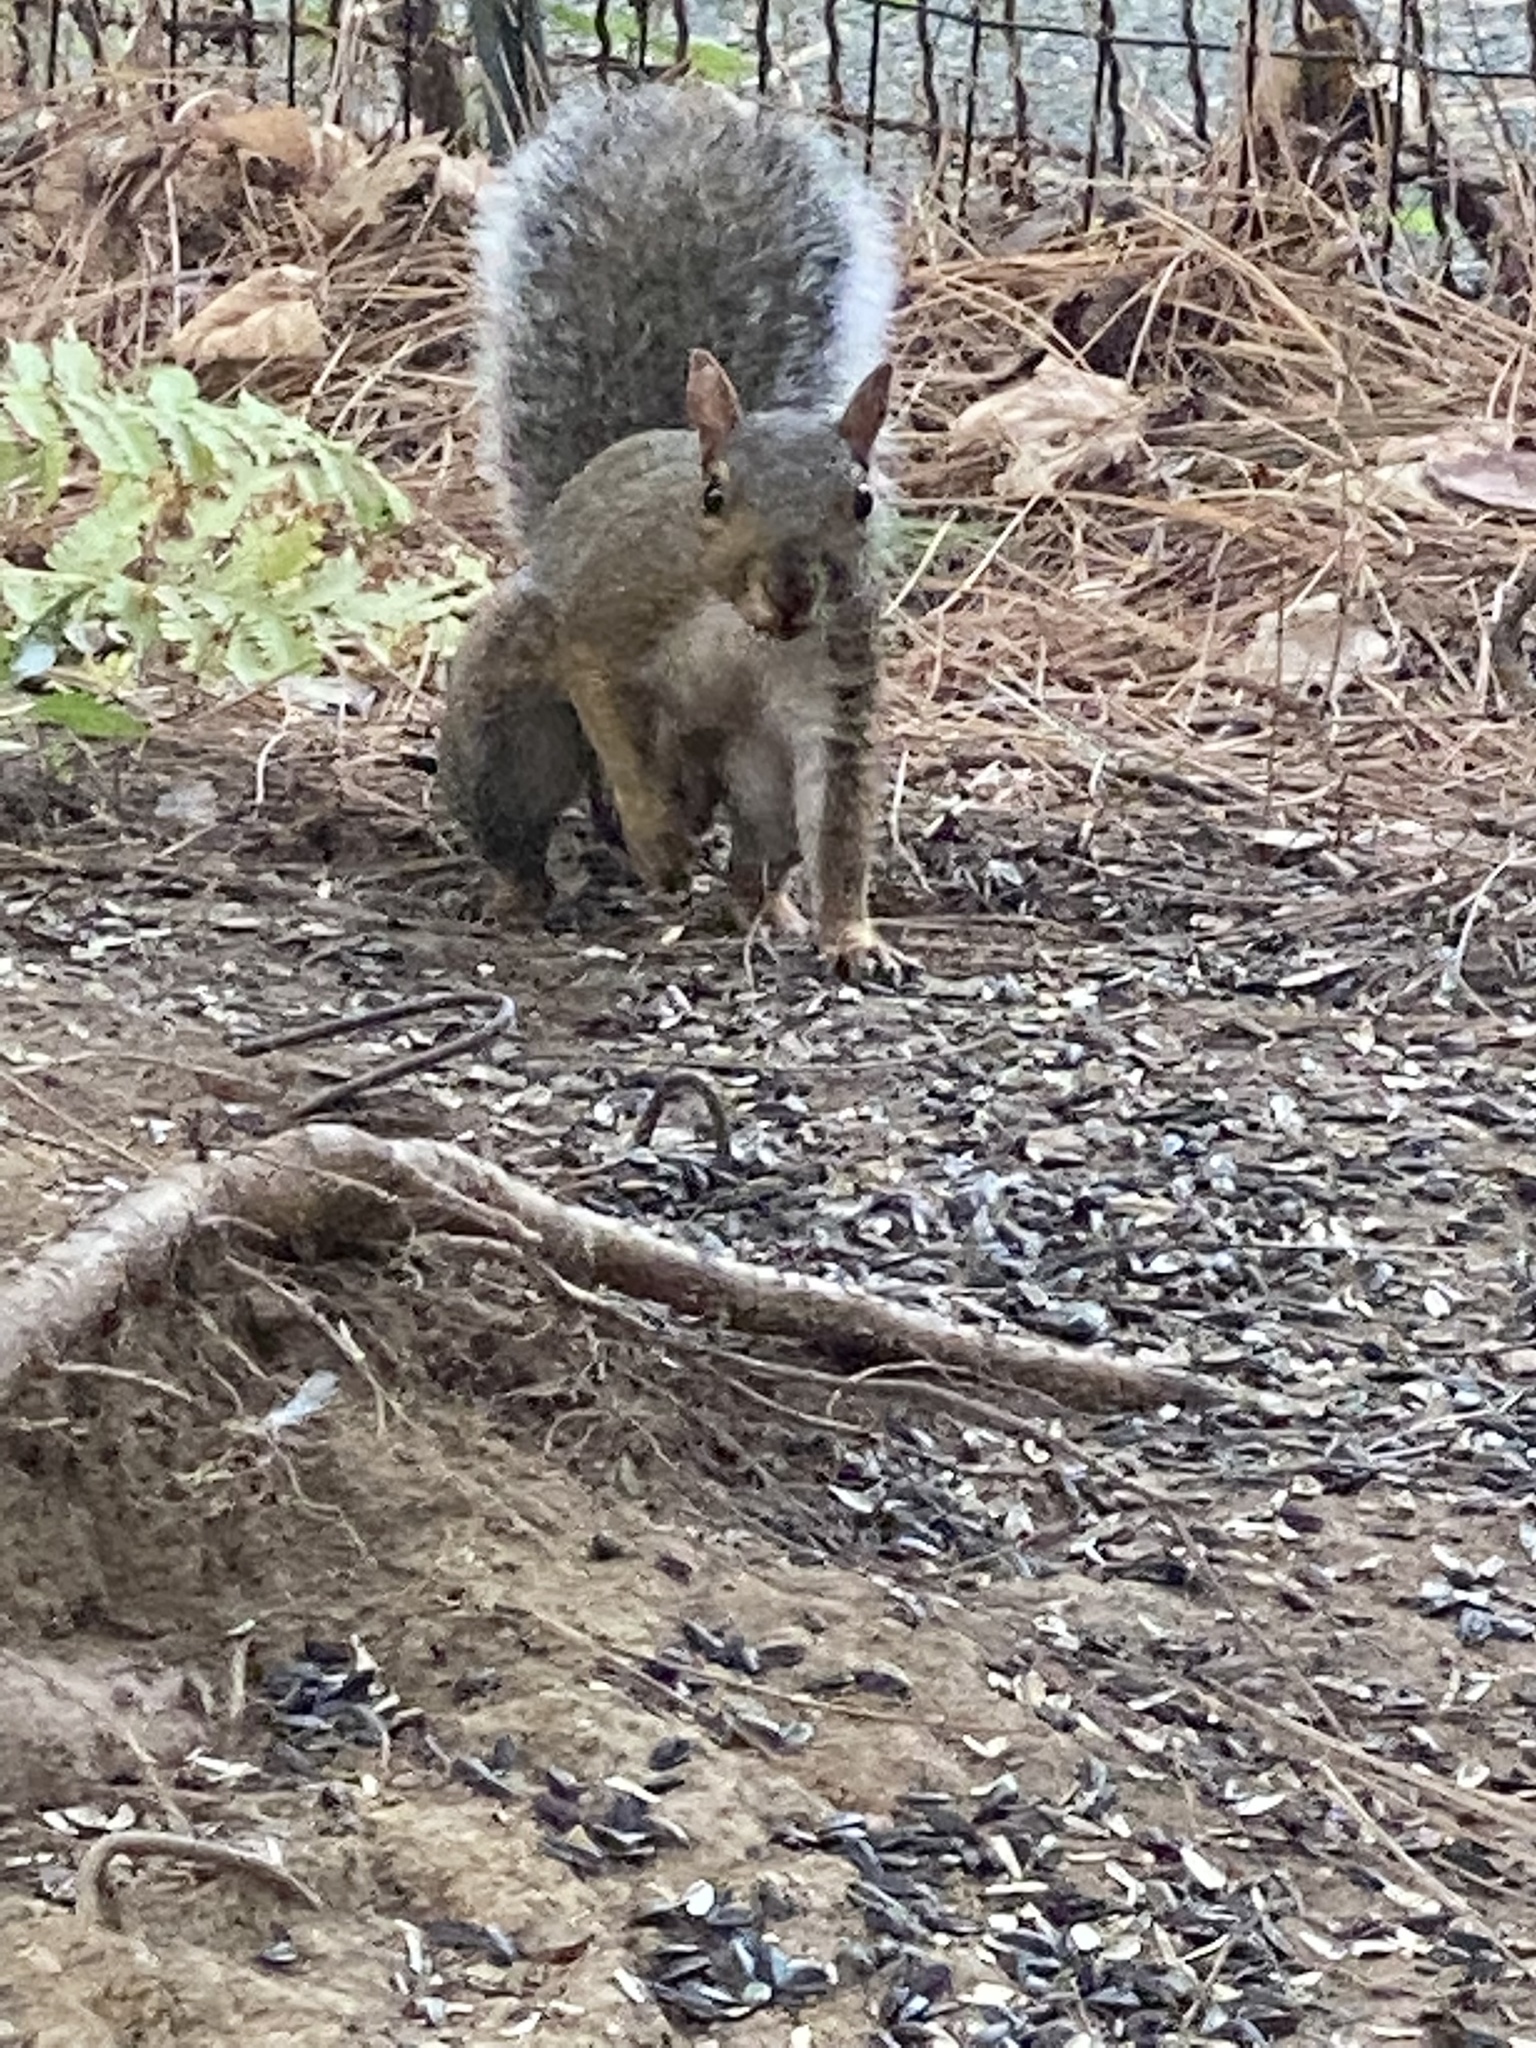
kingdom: Animalia
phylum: Chordata
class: Mammalia
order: Rodentia
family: Sciuridae
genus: Sciurus
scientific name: Sciurus carolinensis
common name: Eastern gray squirrel
